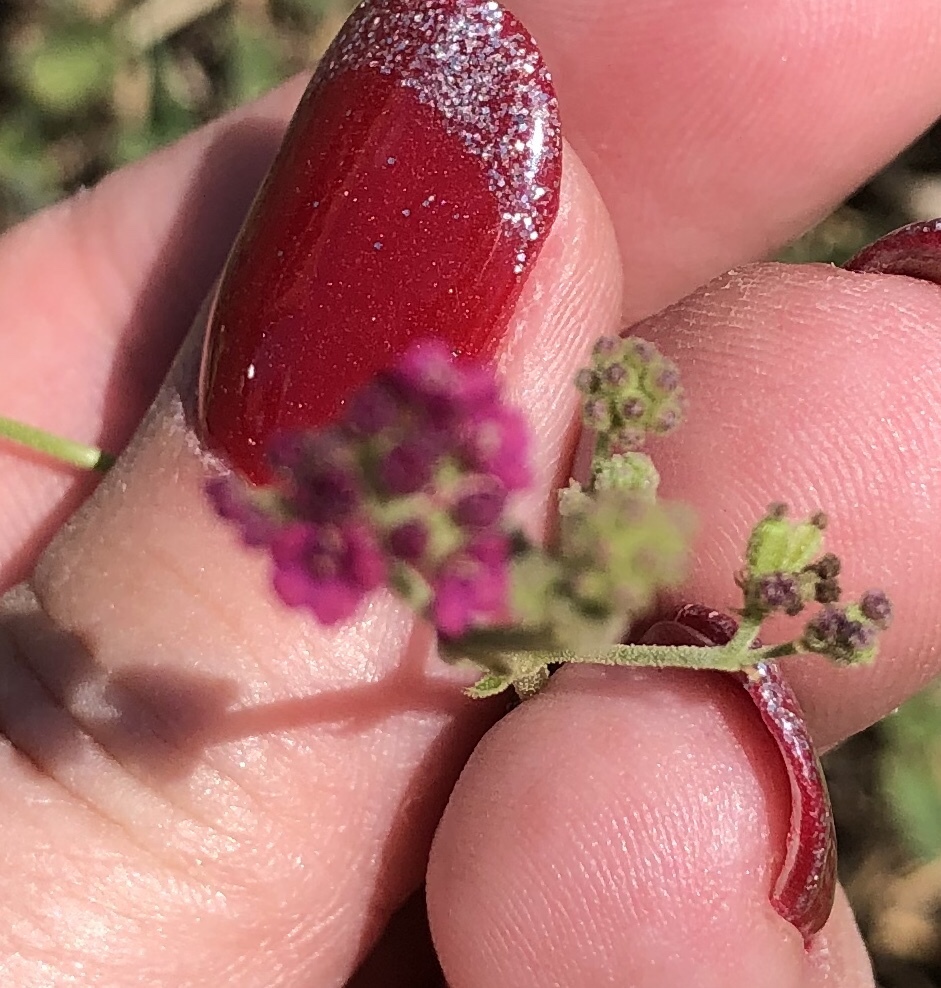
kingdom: Plantae
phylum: Tracheophyta
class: Magnoliopsida
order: Caryophyllales
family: Nyctaginaceae
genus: Boerhavia
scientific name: Boerhavia coccinea
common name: Scarlet spiderling
